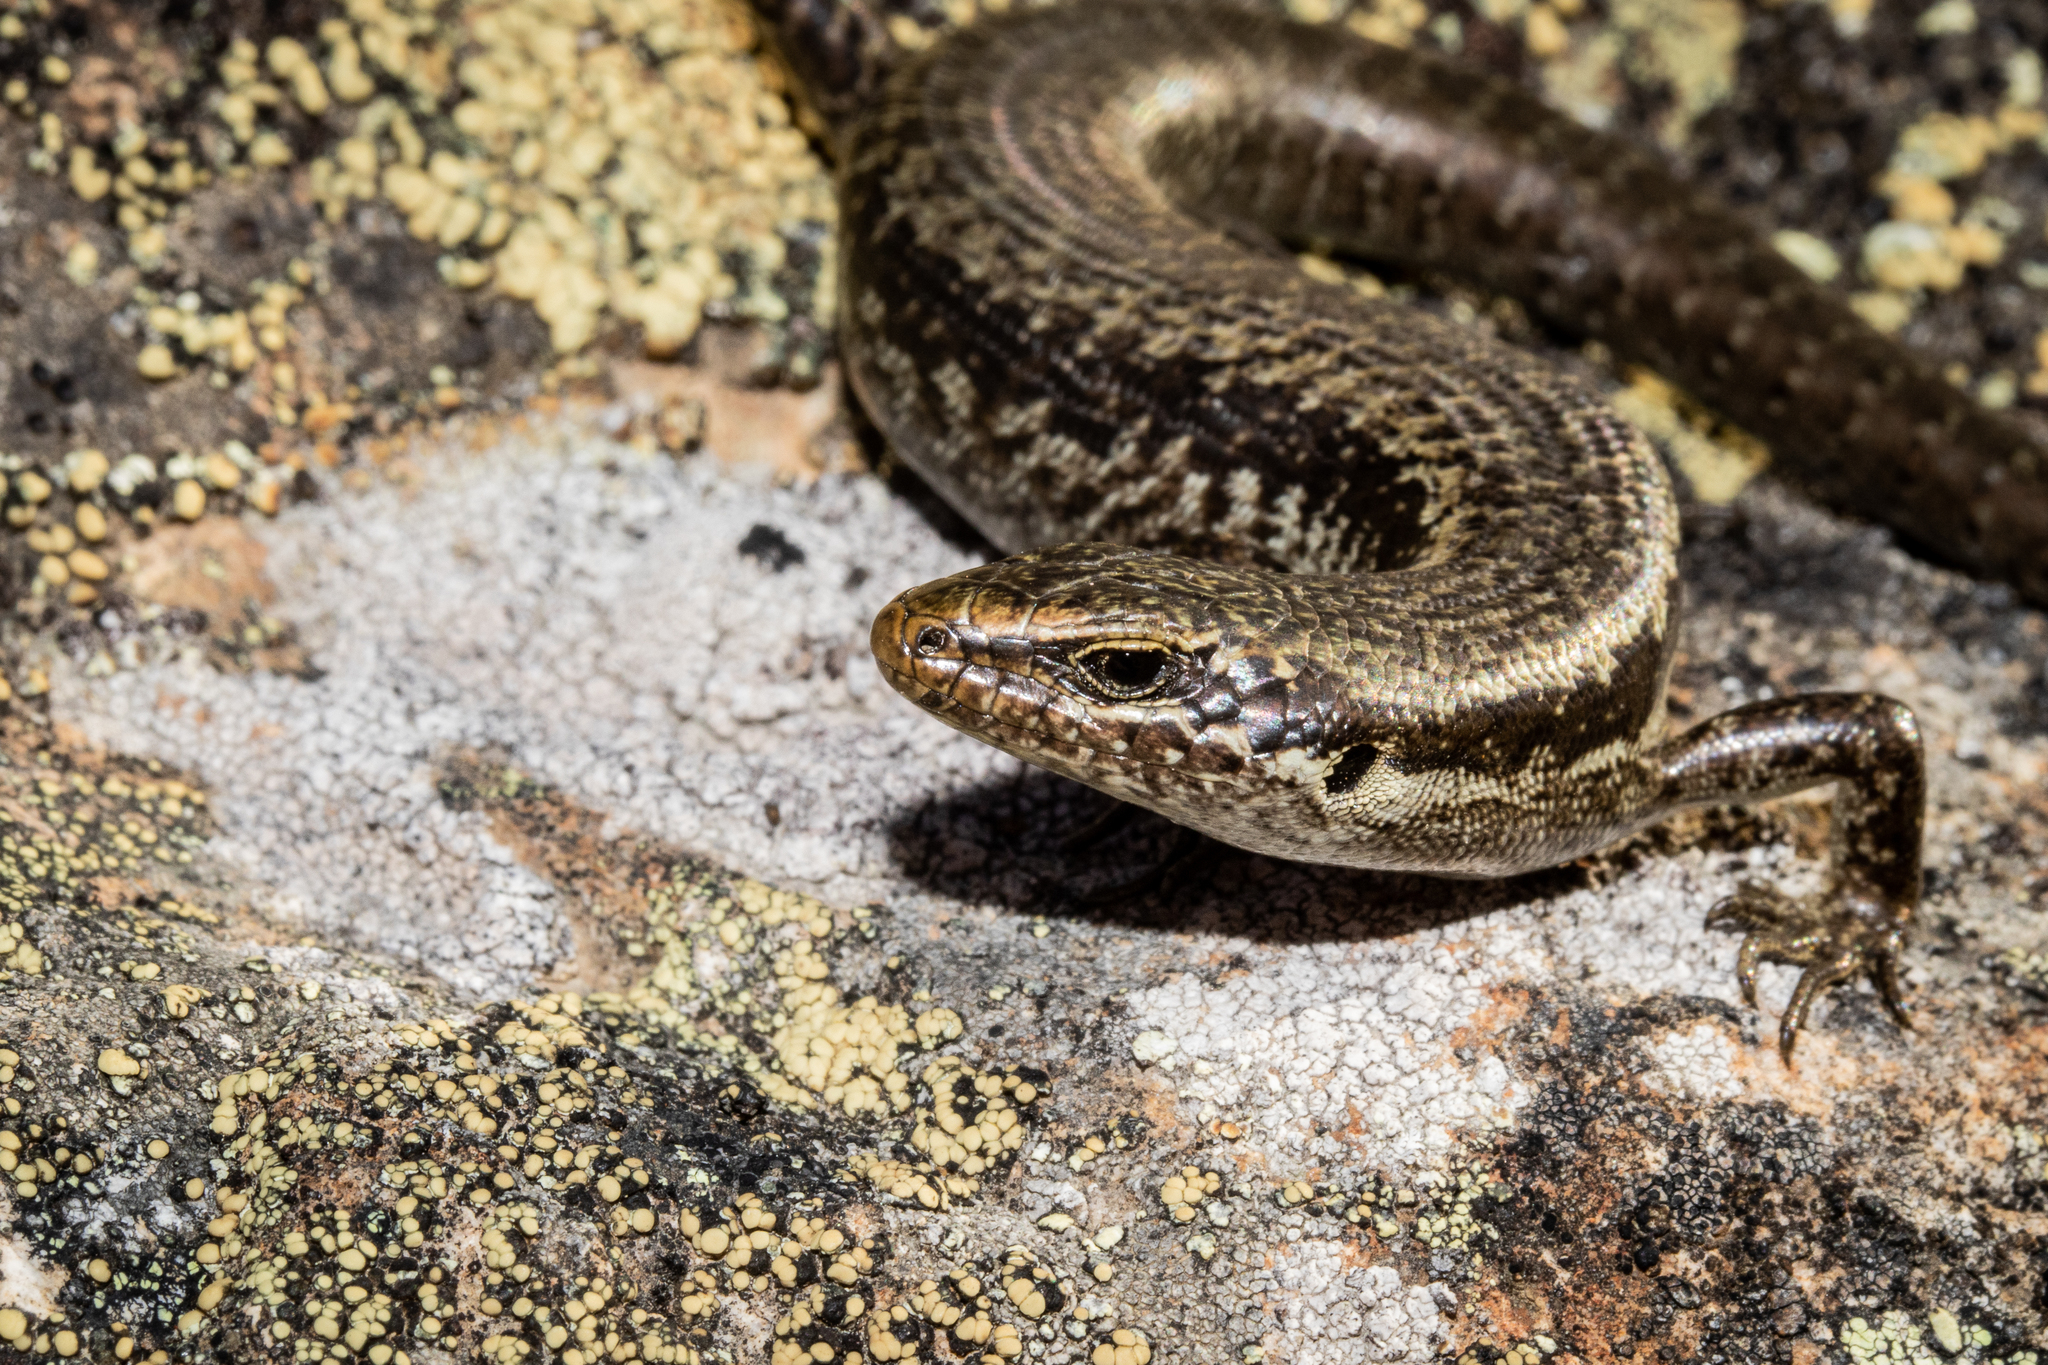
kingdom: Animalia
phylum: Chordata
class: Squamata
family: Scincidae
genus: Oligosoma
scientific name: Oligosoma longipes
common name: Long-toed skink
